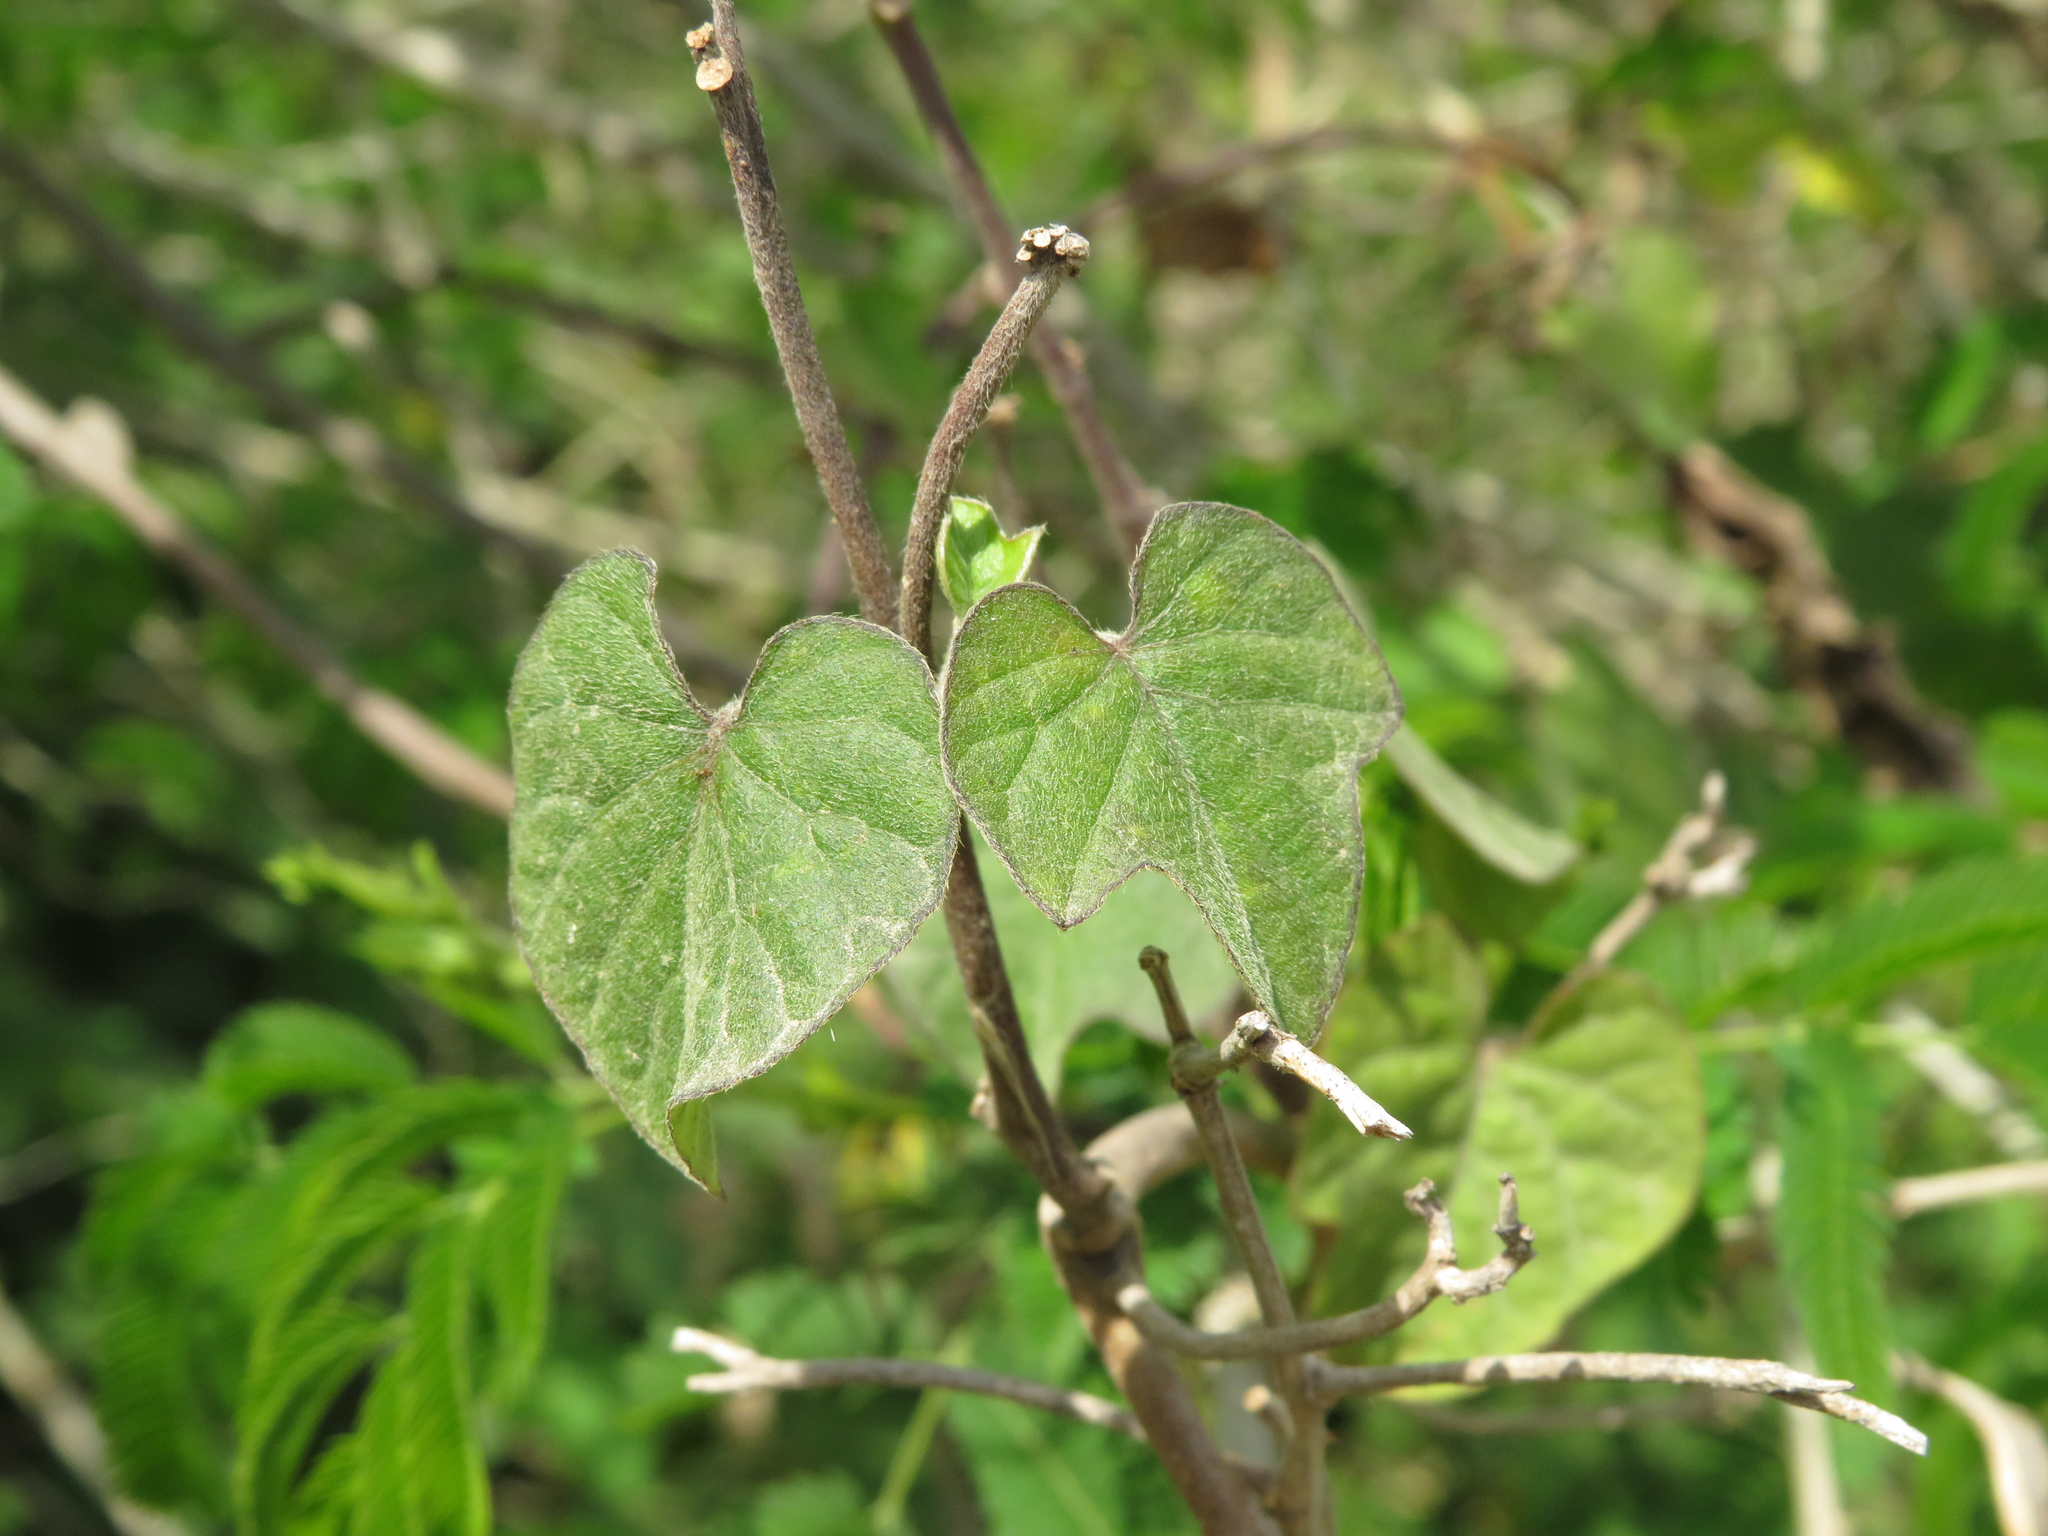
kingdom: Plantae
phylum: Tracheophyta
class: Magnoliopsida
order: Solanales
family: Convolvulaceae
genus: Ipomoea
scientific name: Ipomoea indica
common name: Blue dawnflower
